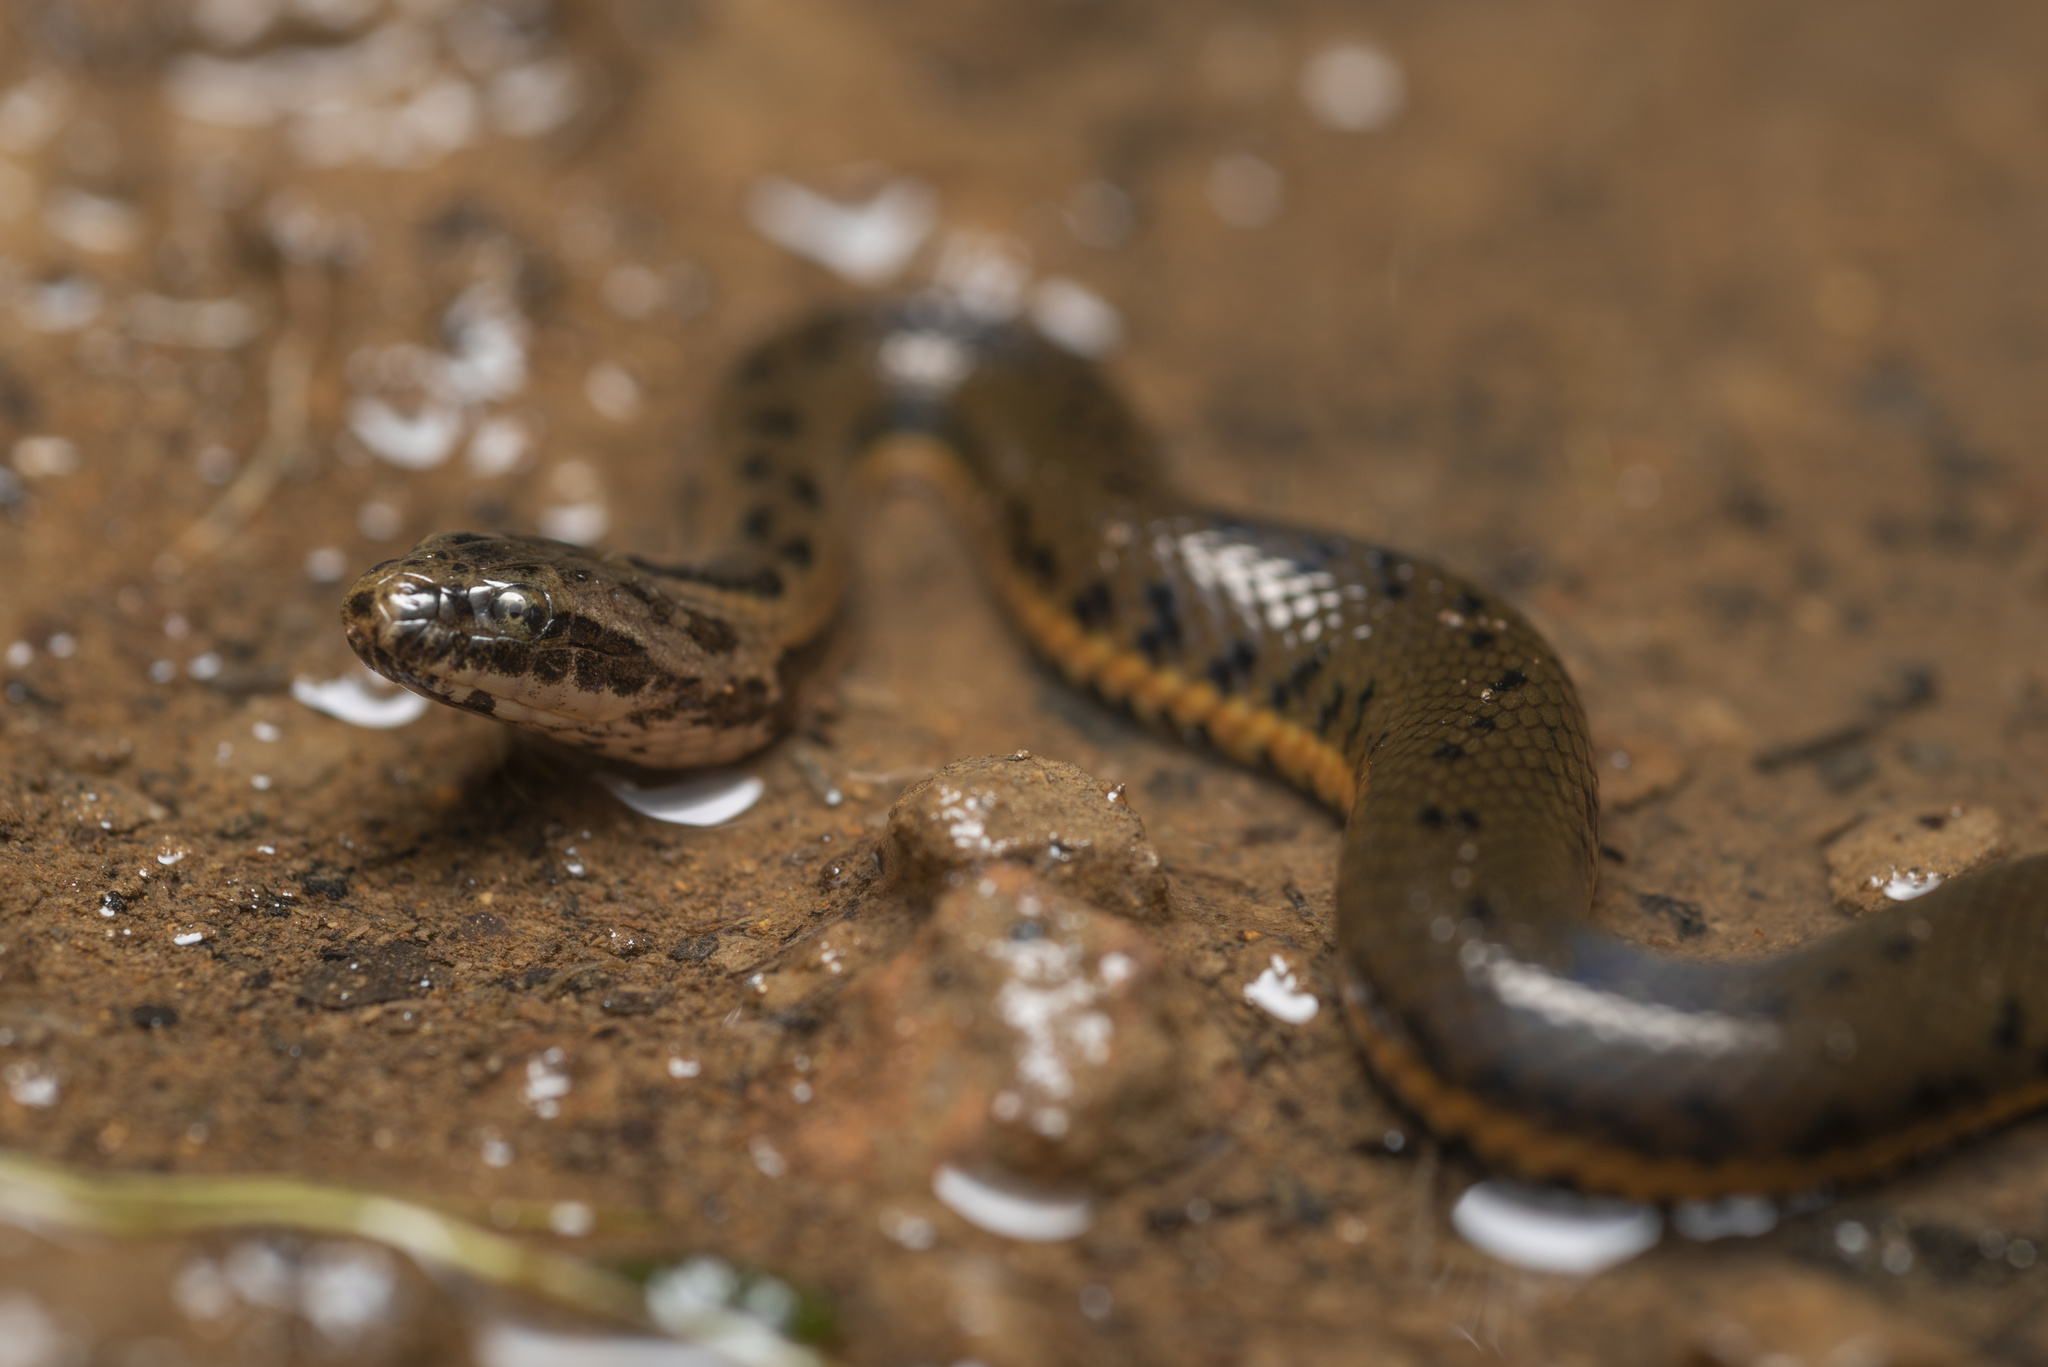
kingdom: Animalia
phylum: Chordata
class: Squamata
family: Homalopsidae
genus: Myrrophis
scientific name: Myrrophis chinensis
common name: Chinese mud snake
